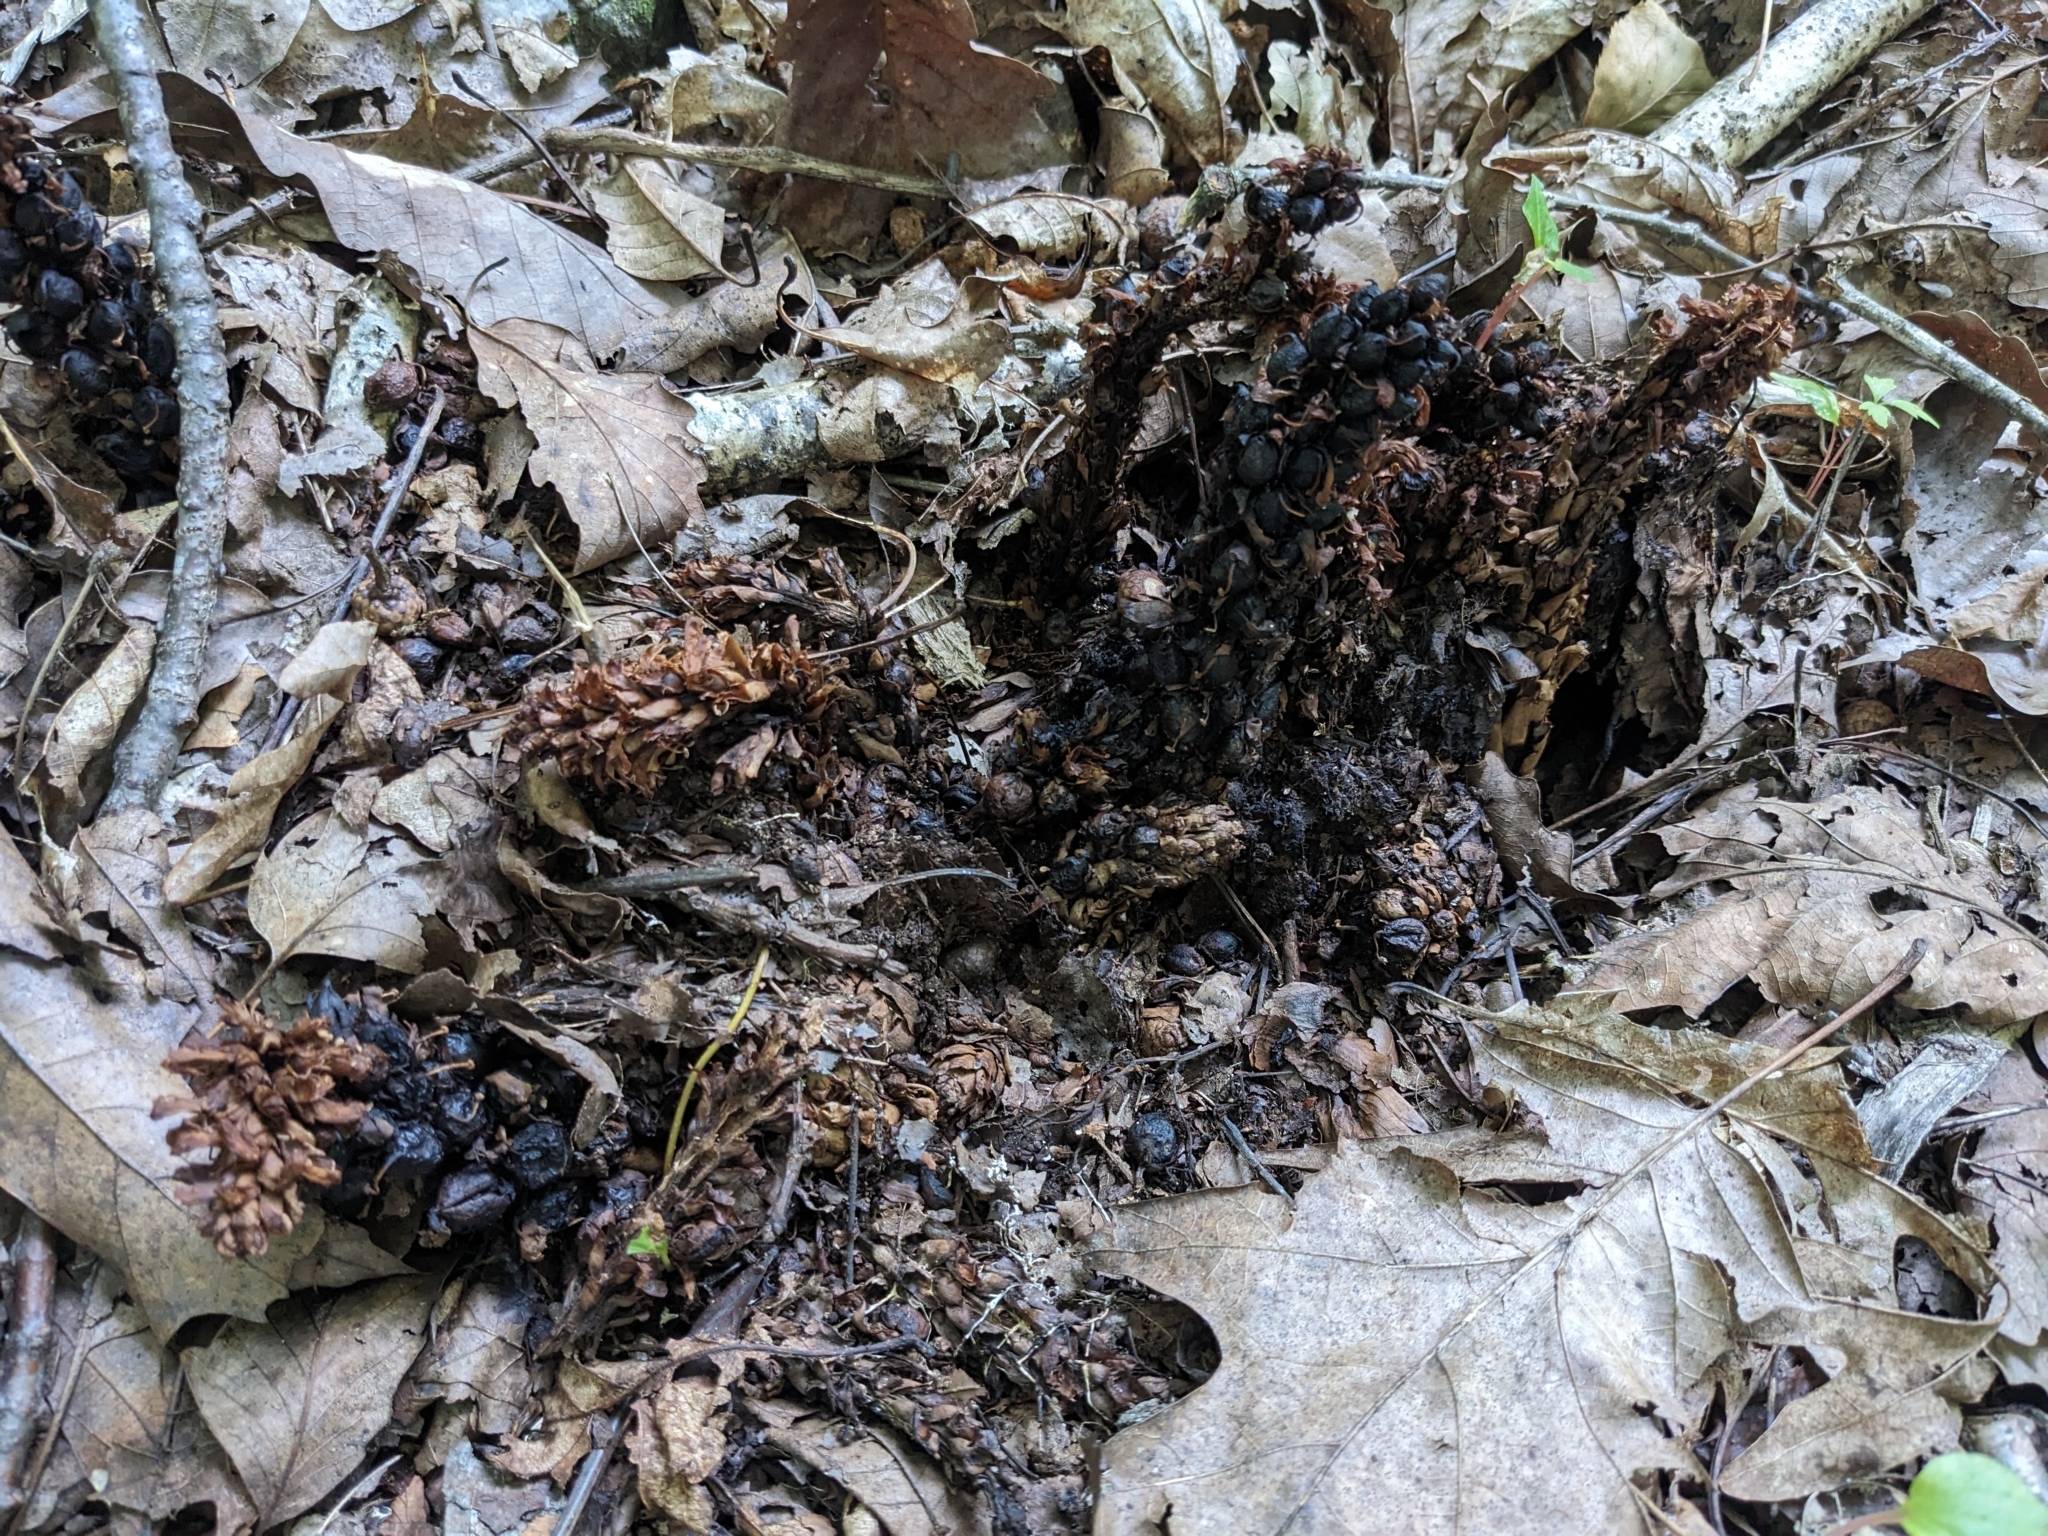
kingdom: Plantae
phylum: Tracheophyta
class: Magnoliopsida
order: Lamiales
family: Orobanchaceae
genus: Conopholis
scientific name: Conopholis americana
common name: American cancer-root
